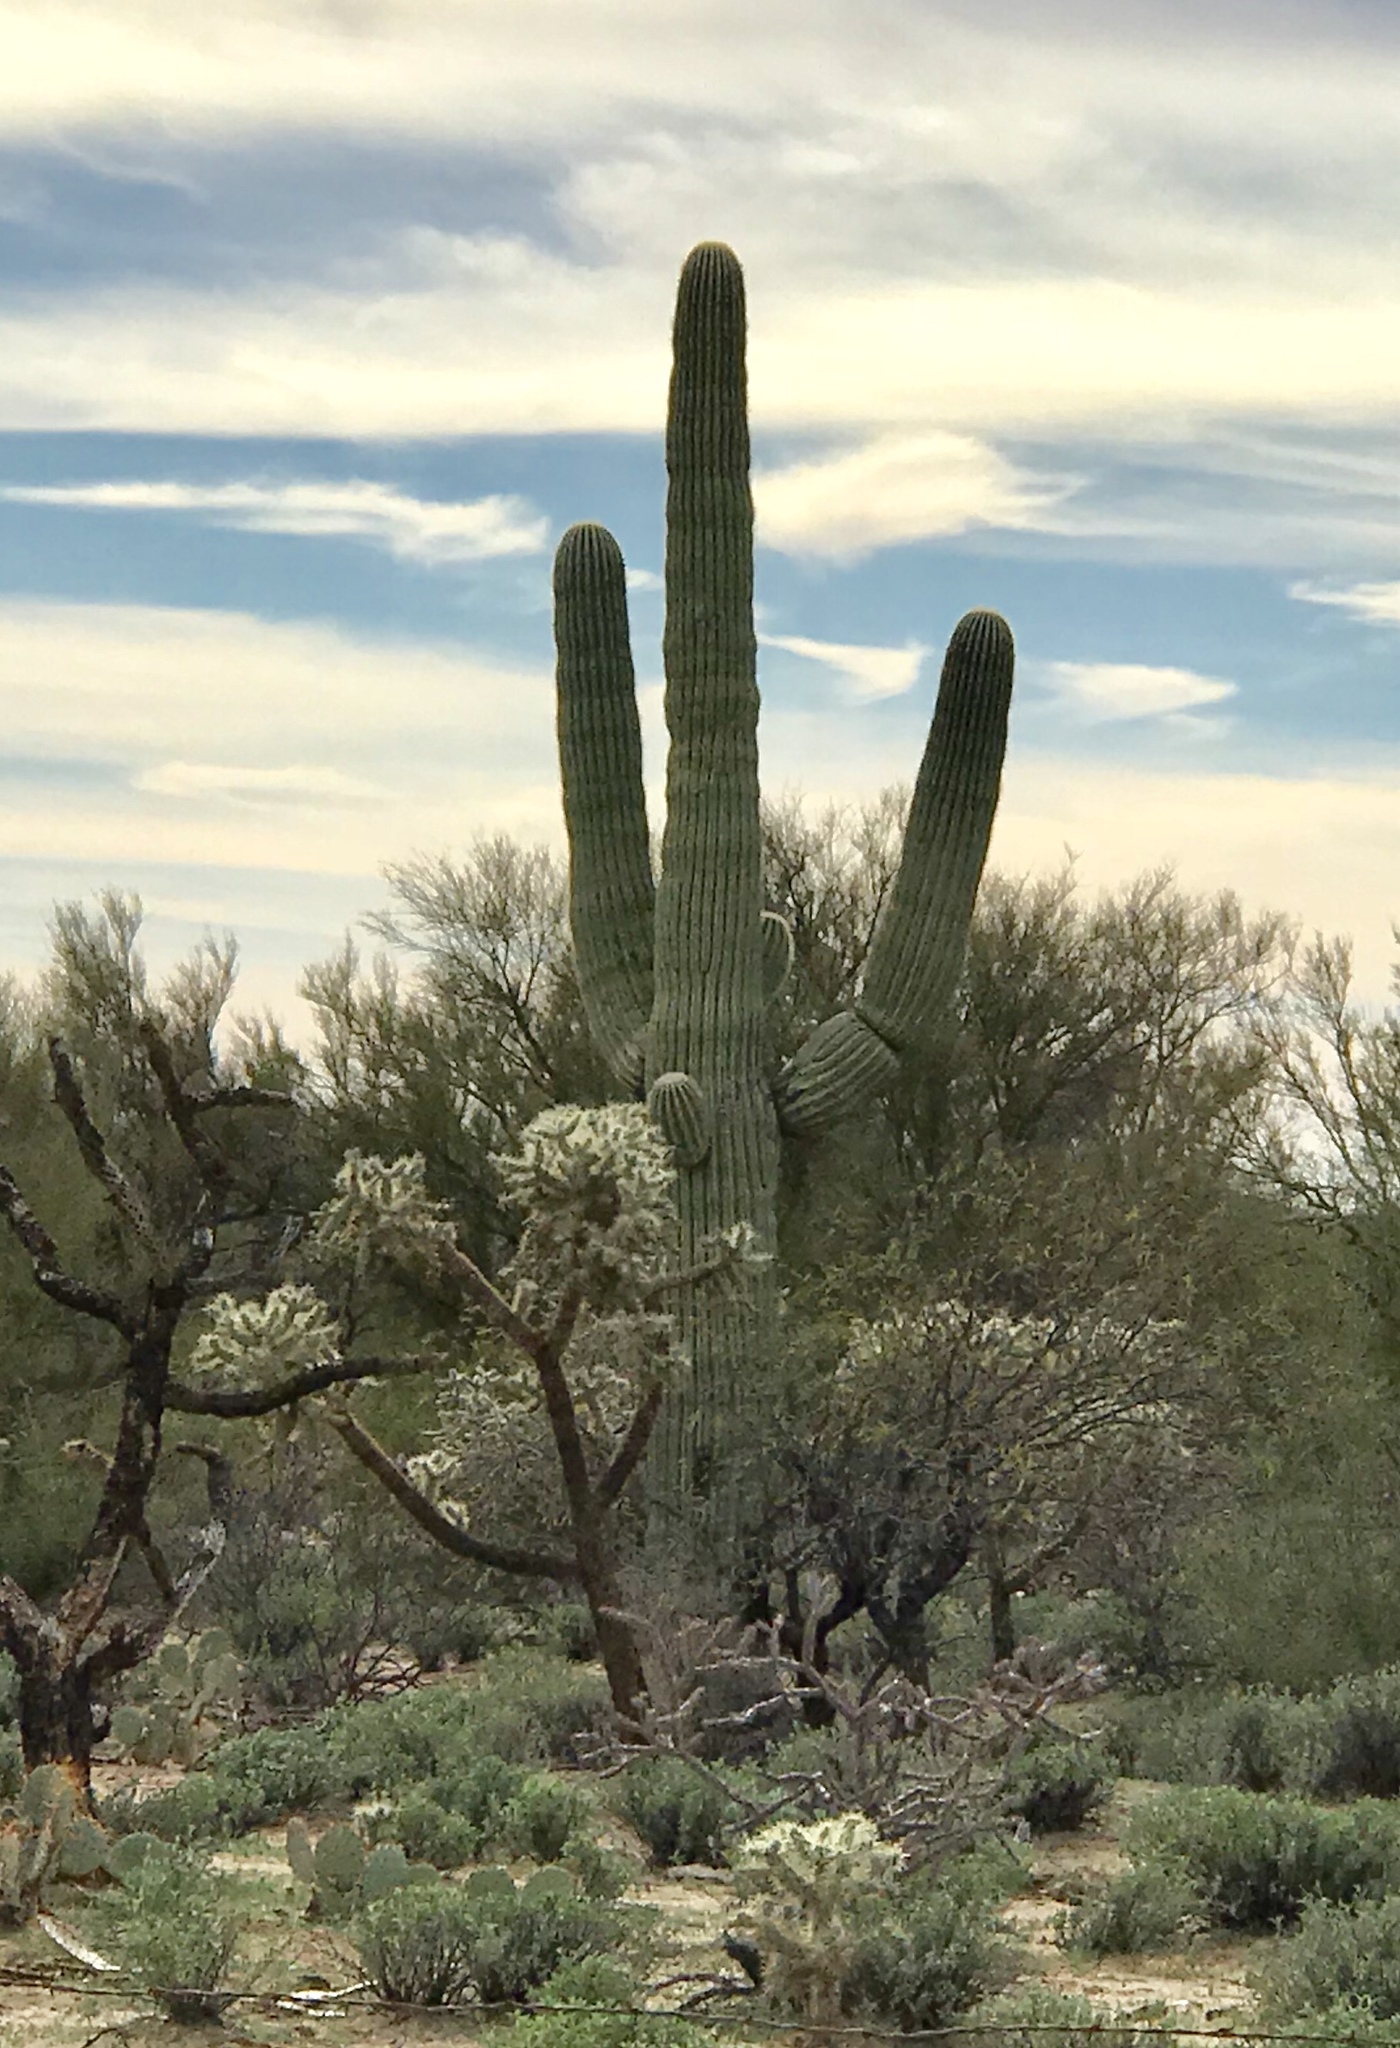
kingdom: Plantae
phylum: Tracheophyta
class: Magnoliopsida
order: Caryophyllales
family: Cactaceae
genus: Carnegiea
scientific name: Carnegiea gigantea
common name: Saguaro
